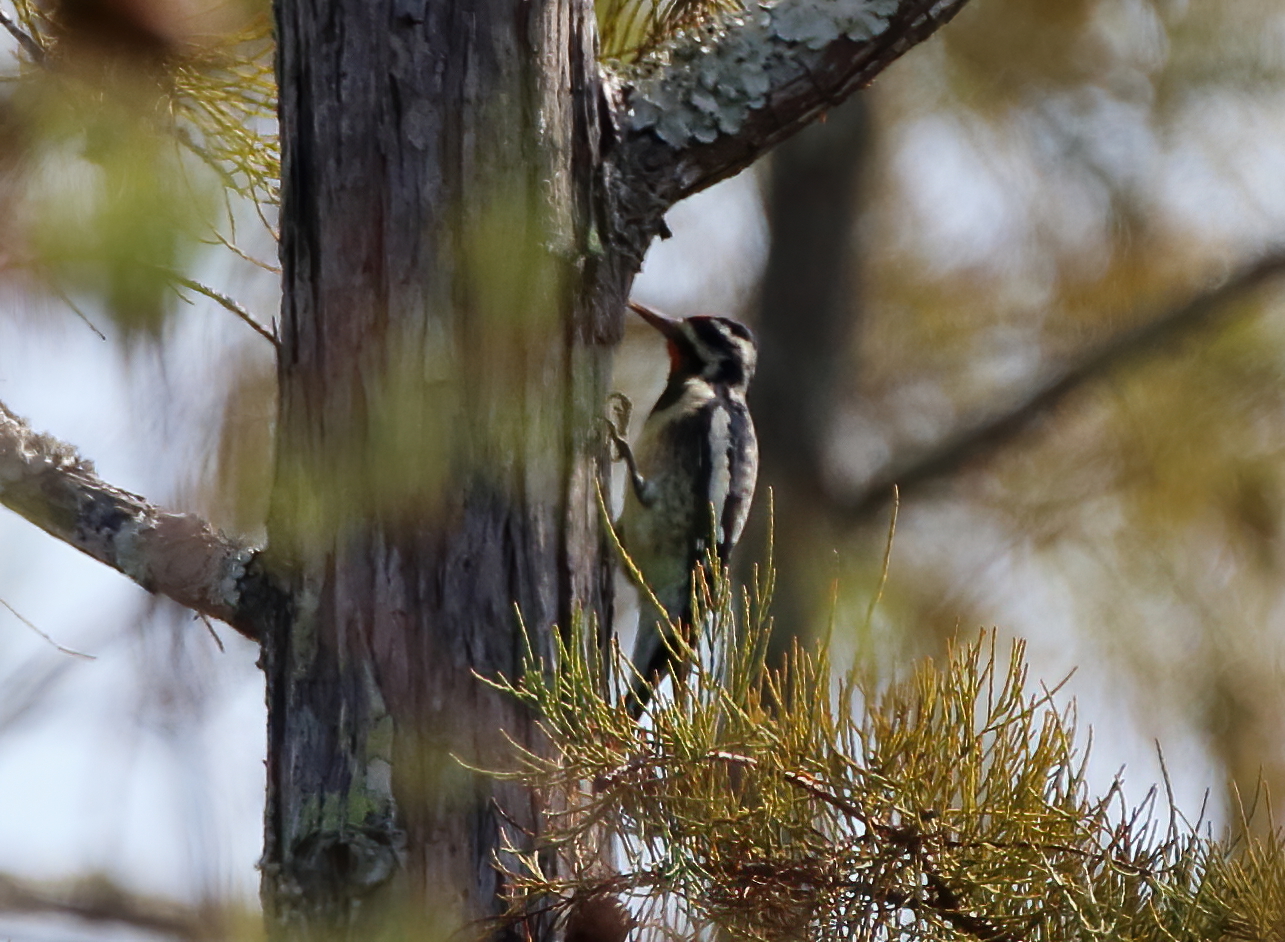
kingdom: Animalia
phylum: Chordata
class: Aves
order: Piciformes
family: Picidae
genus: Sphyrapicus
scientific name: Sphyrapicus varius
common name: Yellow-bellied sapsucker
